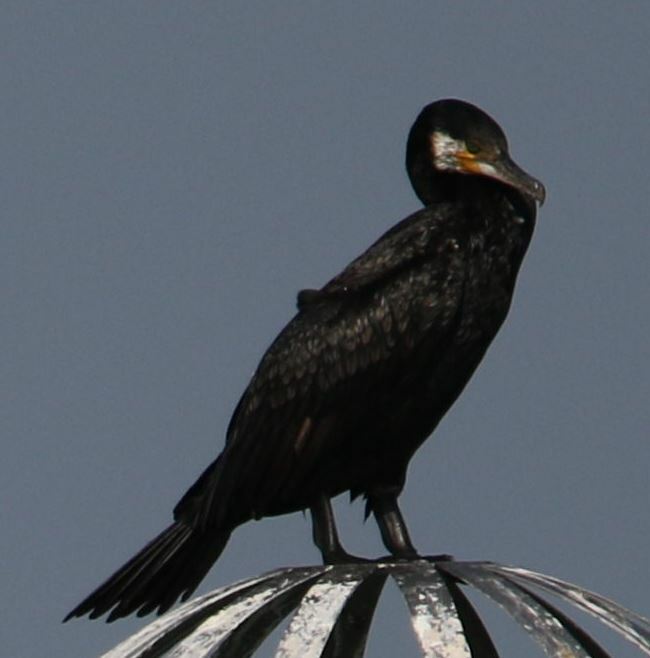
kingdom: Animalia
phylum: Chordata
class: Aves
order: Suliformes
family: Phalacrocoracidae
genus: Phalacrocorax
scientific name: Phalacrocorax carbo
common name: Great cormorant
